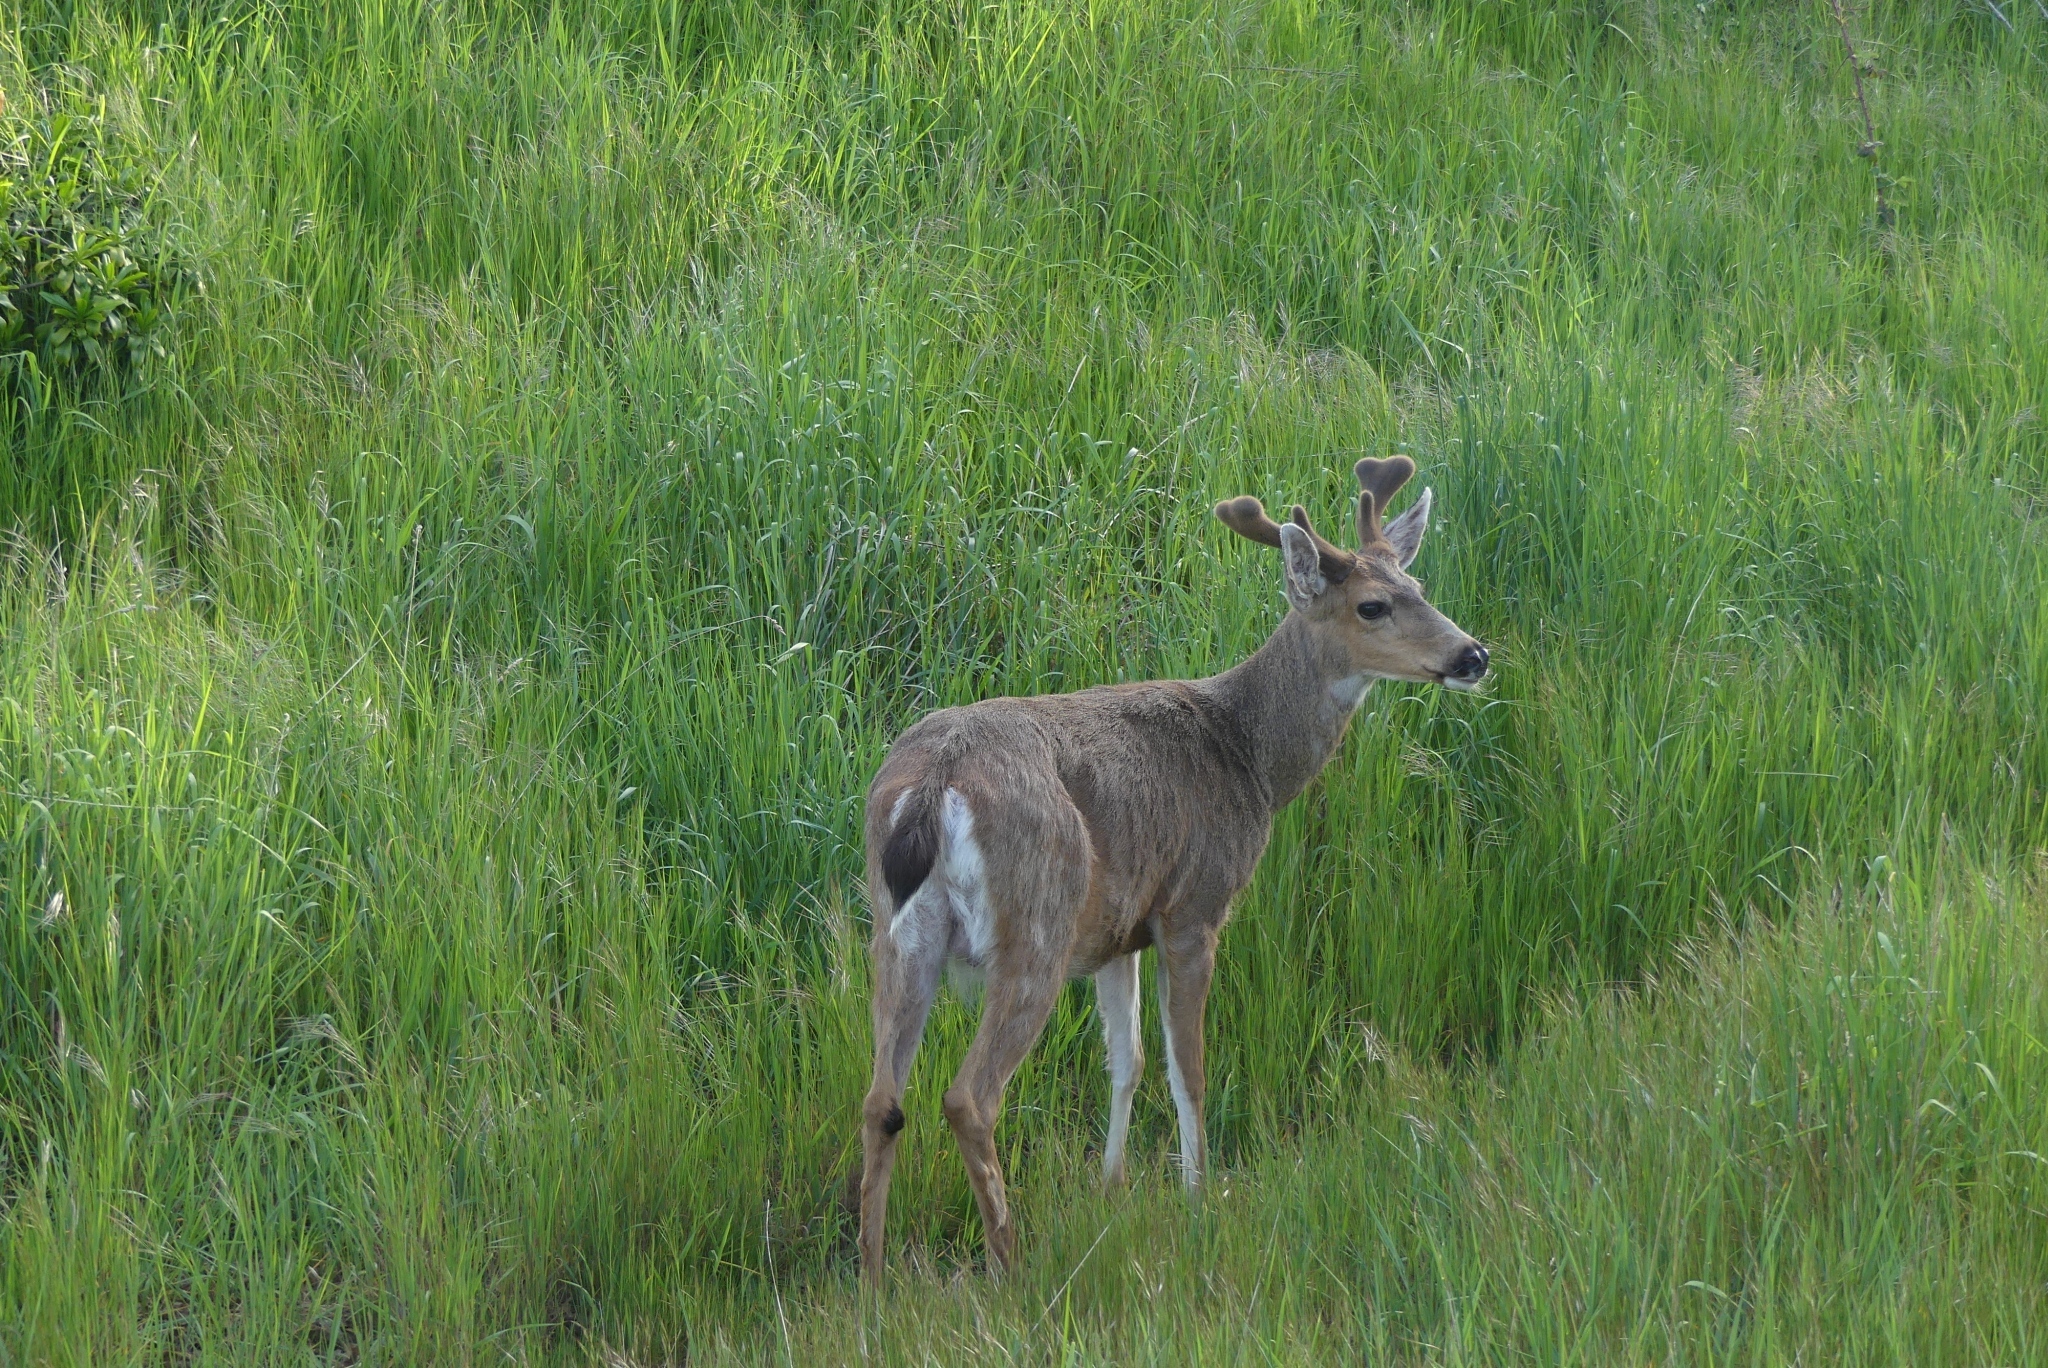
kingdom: Animalia
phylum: Chordata
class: Mammalia
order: Artiodactyla
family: Cervidae
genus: Odocoileus
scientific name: Odocoileus hemionus
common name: Mule deer
